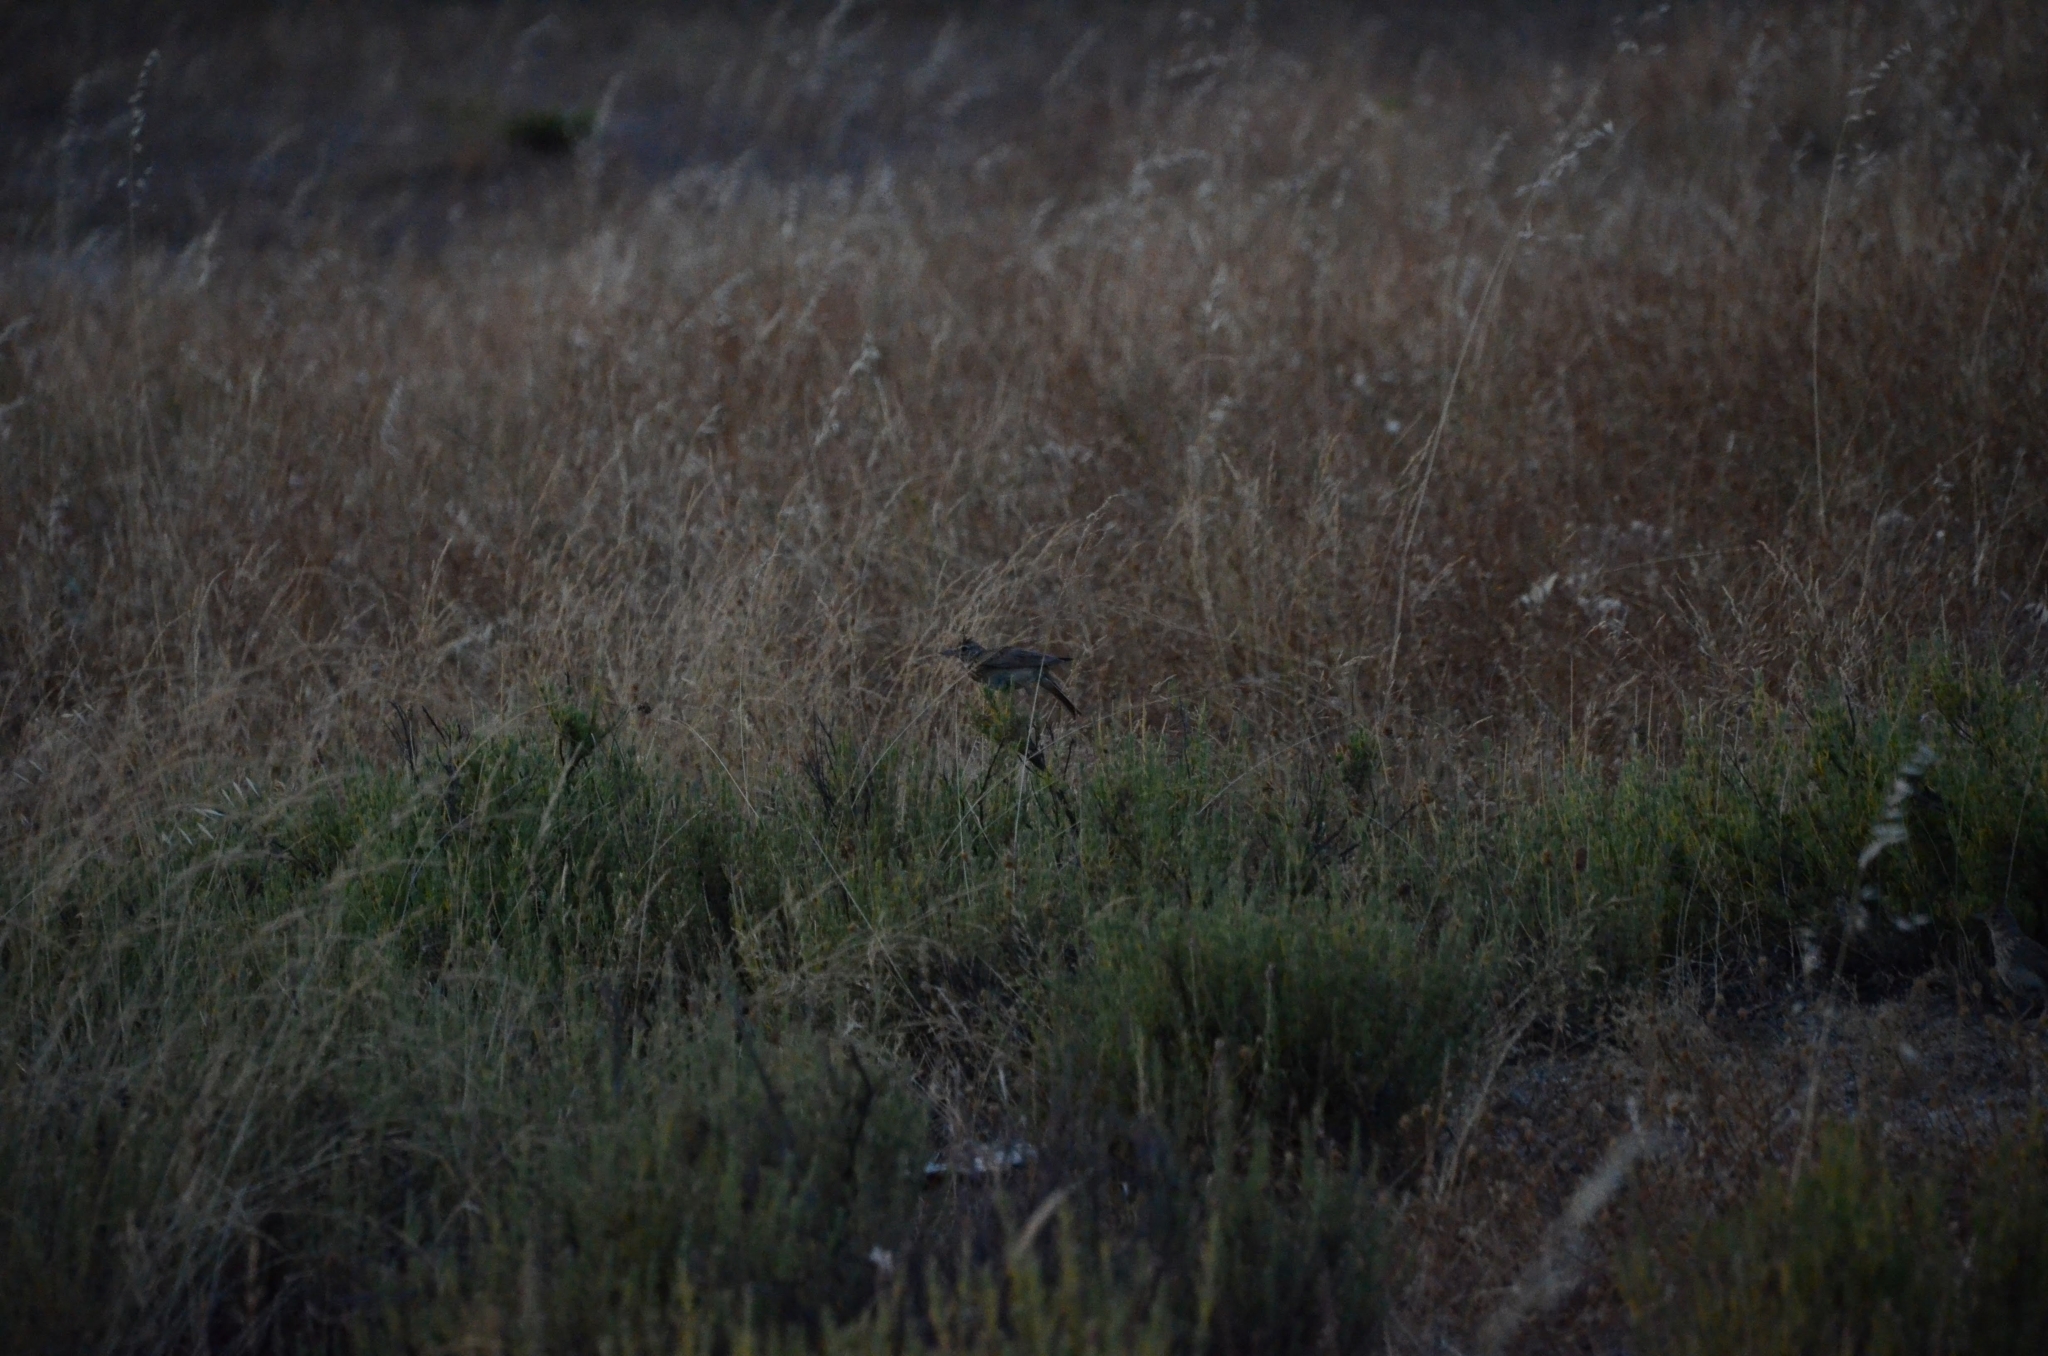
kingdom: Animalia
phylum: Chordata
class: Aves
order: Passeriformes
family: Alaudidae
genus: Galerida
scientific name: Galerida cristata
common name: Crested lark
